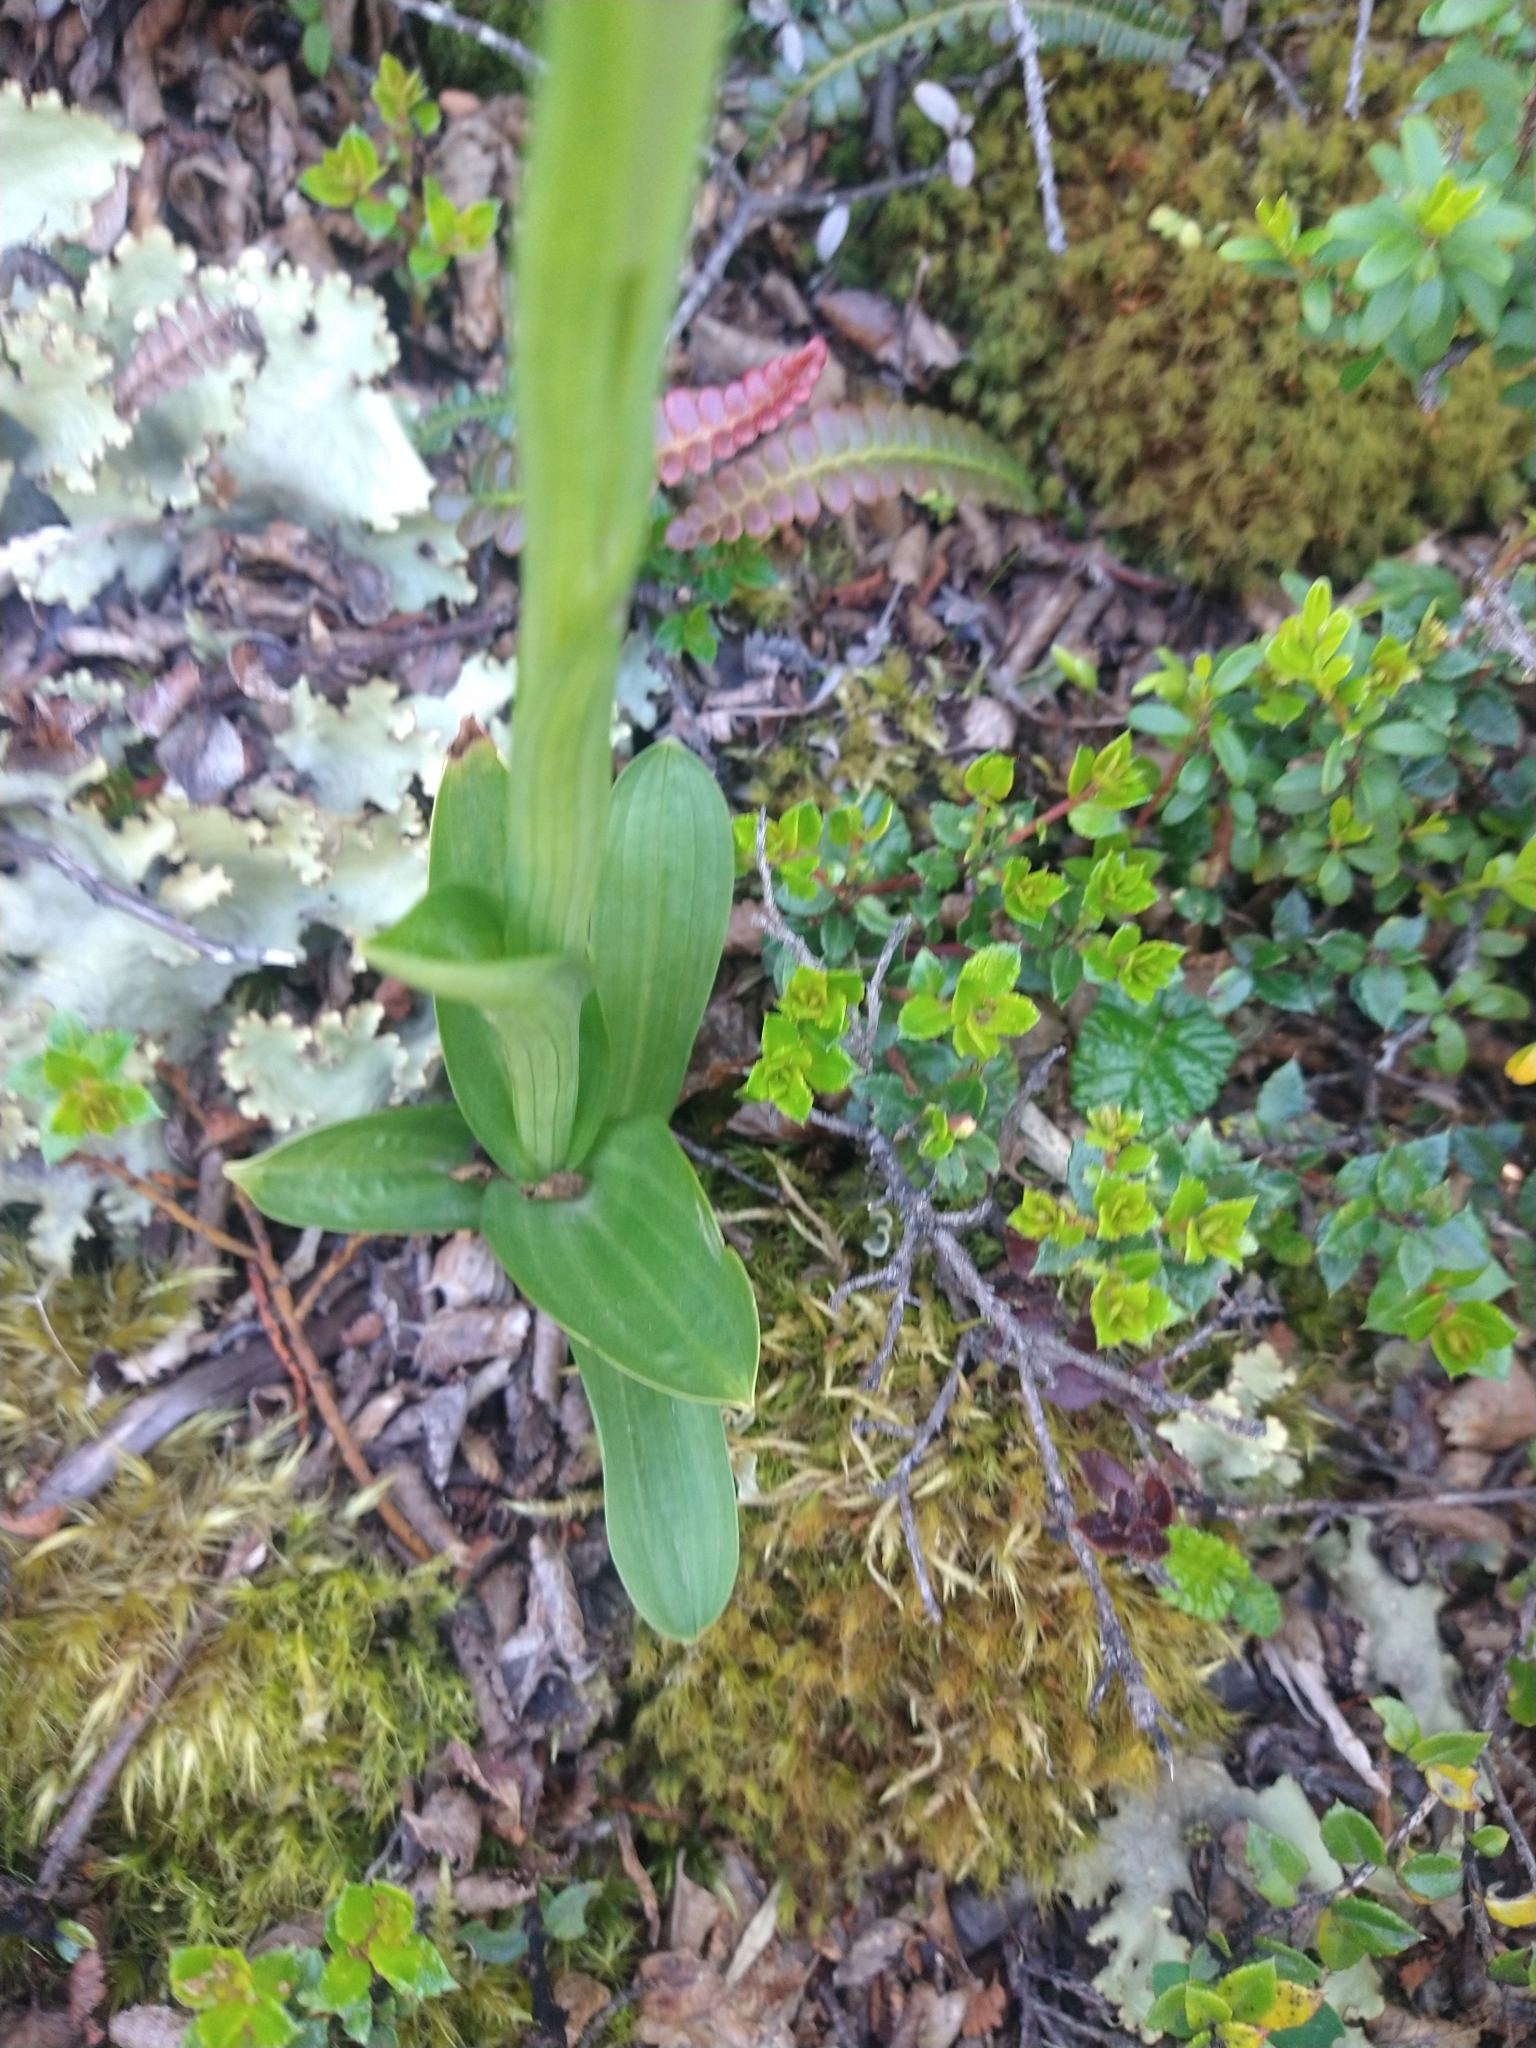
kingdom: Plantae
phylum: Tracheophyta
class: Liliopsida
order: Asparagales
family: Orchidaceae
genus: Gavilea
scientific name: Gavilea lutea
